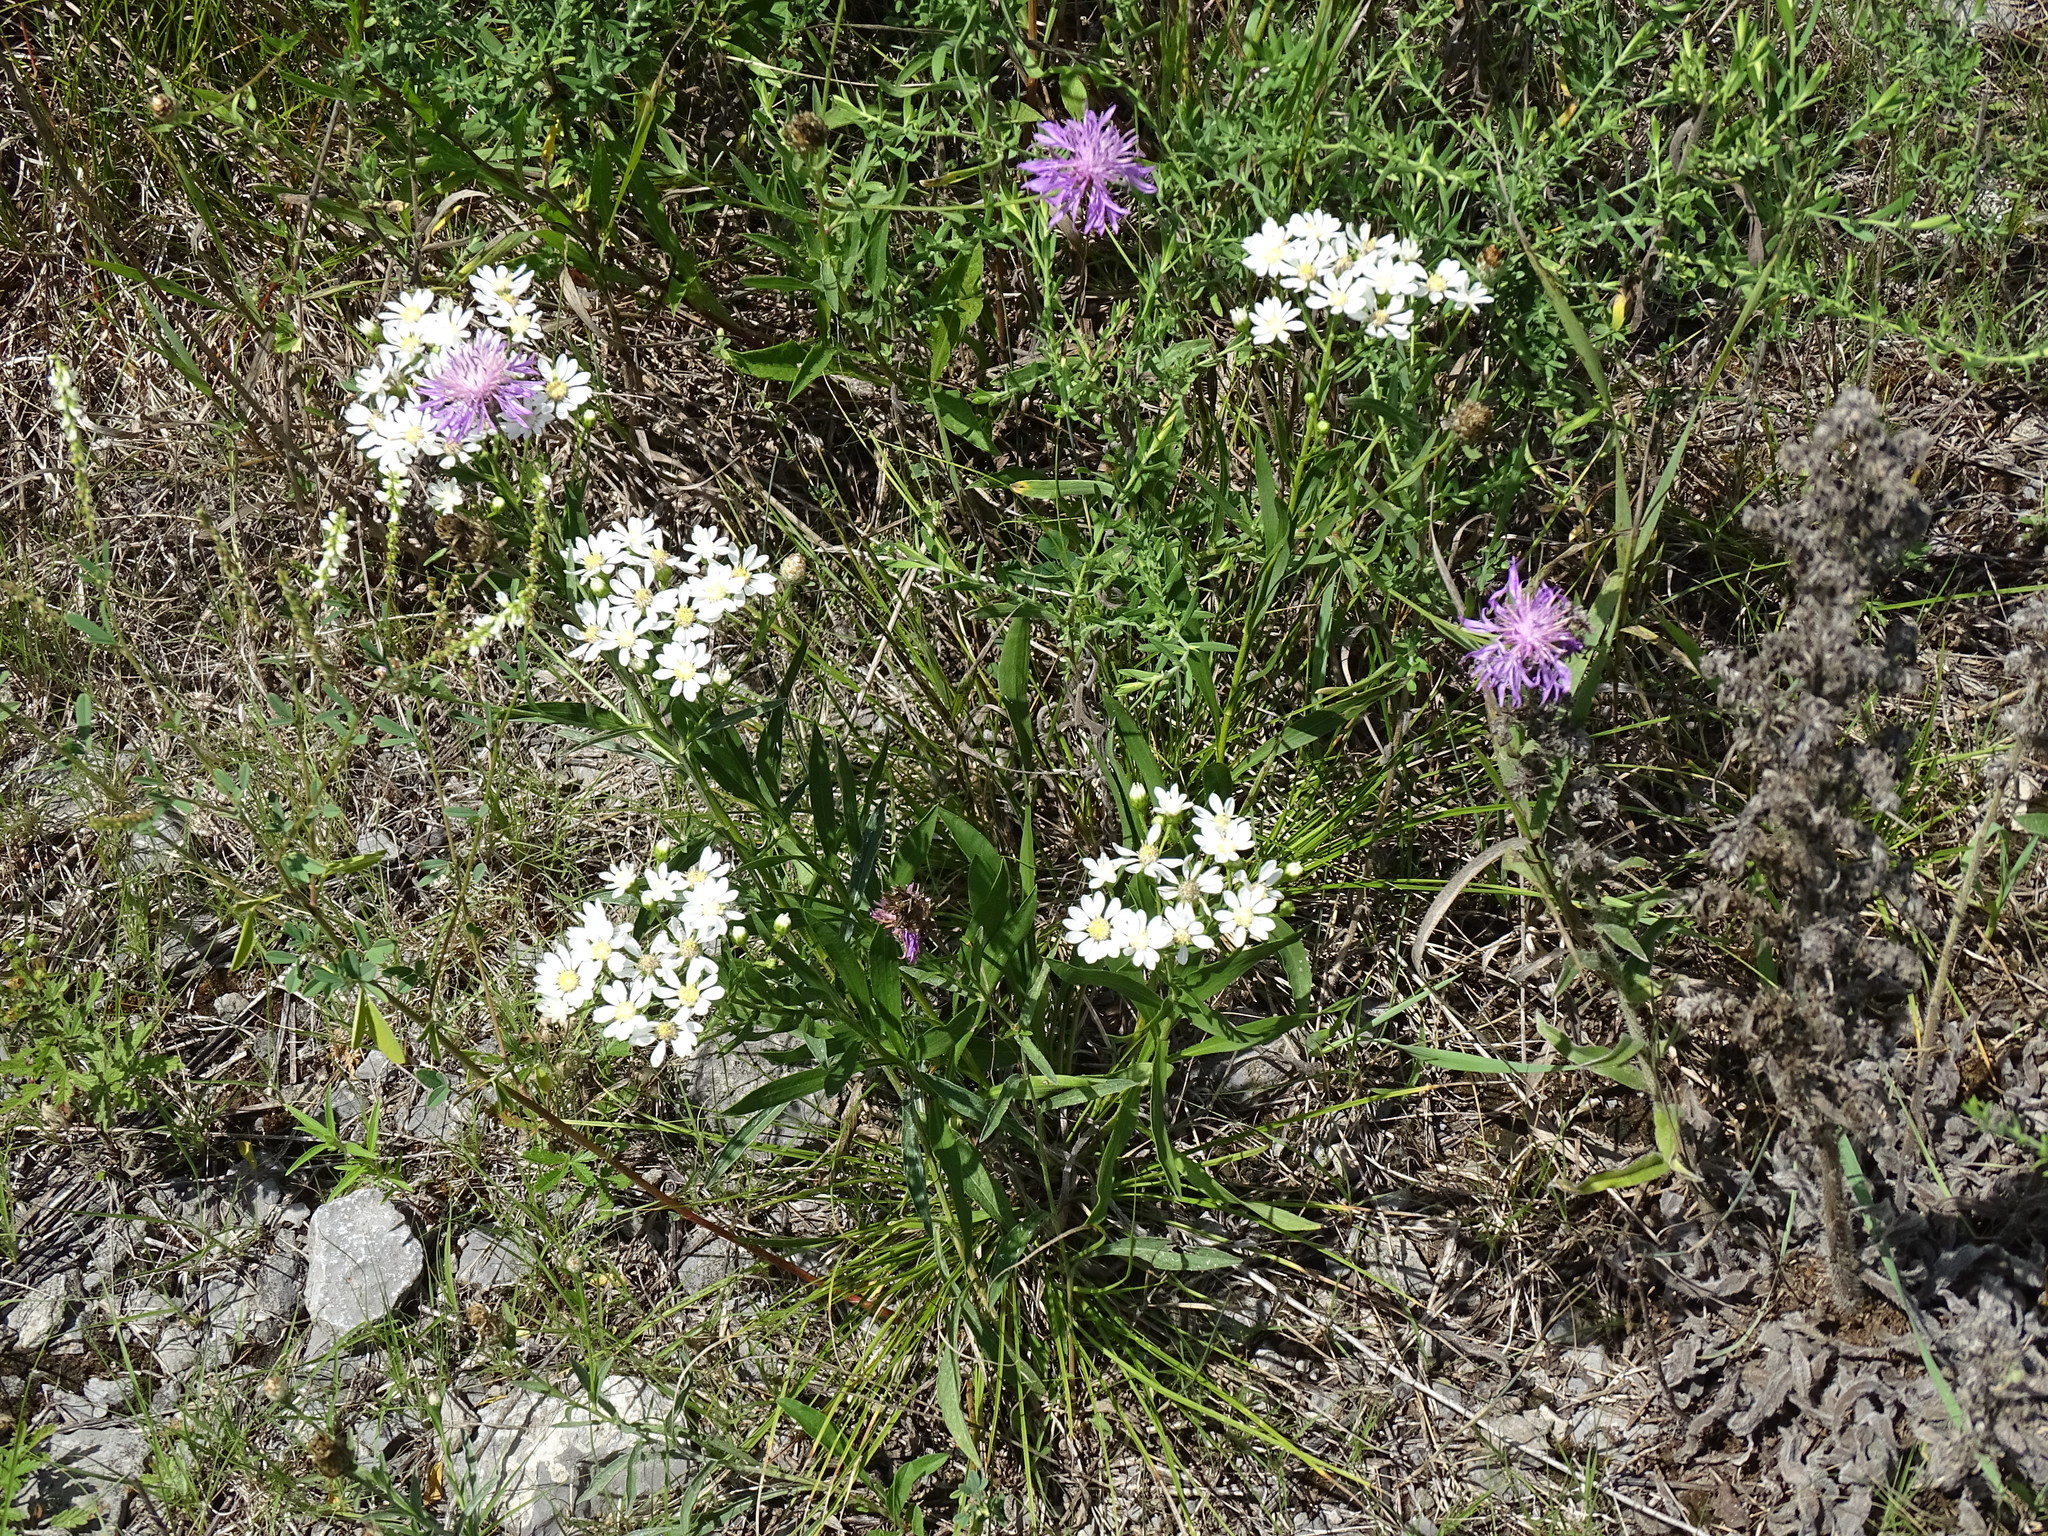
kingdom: Plantae
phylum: Tracheophyta
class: Magnoliopsida
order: Asterales
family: Asteraceae
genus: Solidago
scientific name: Solidago ptarmicoides
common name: White flat-top goldenrod
